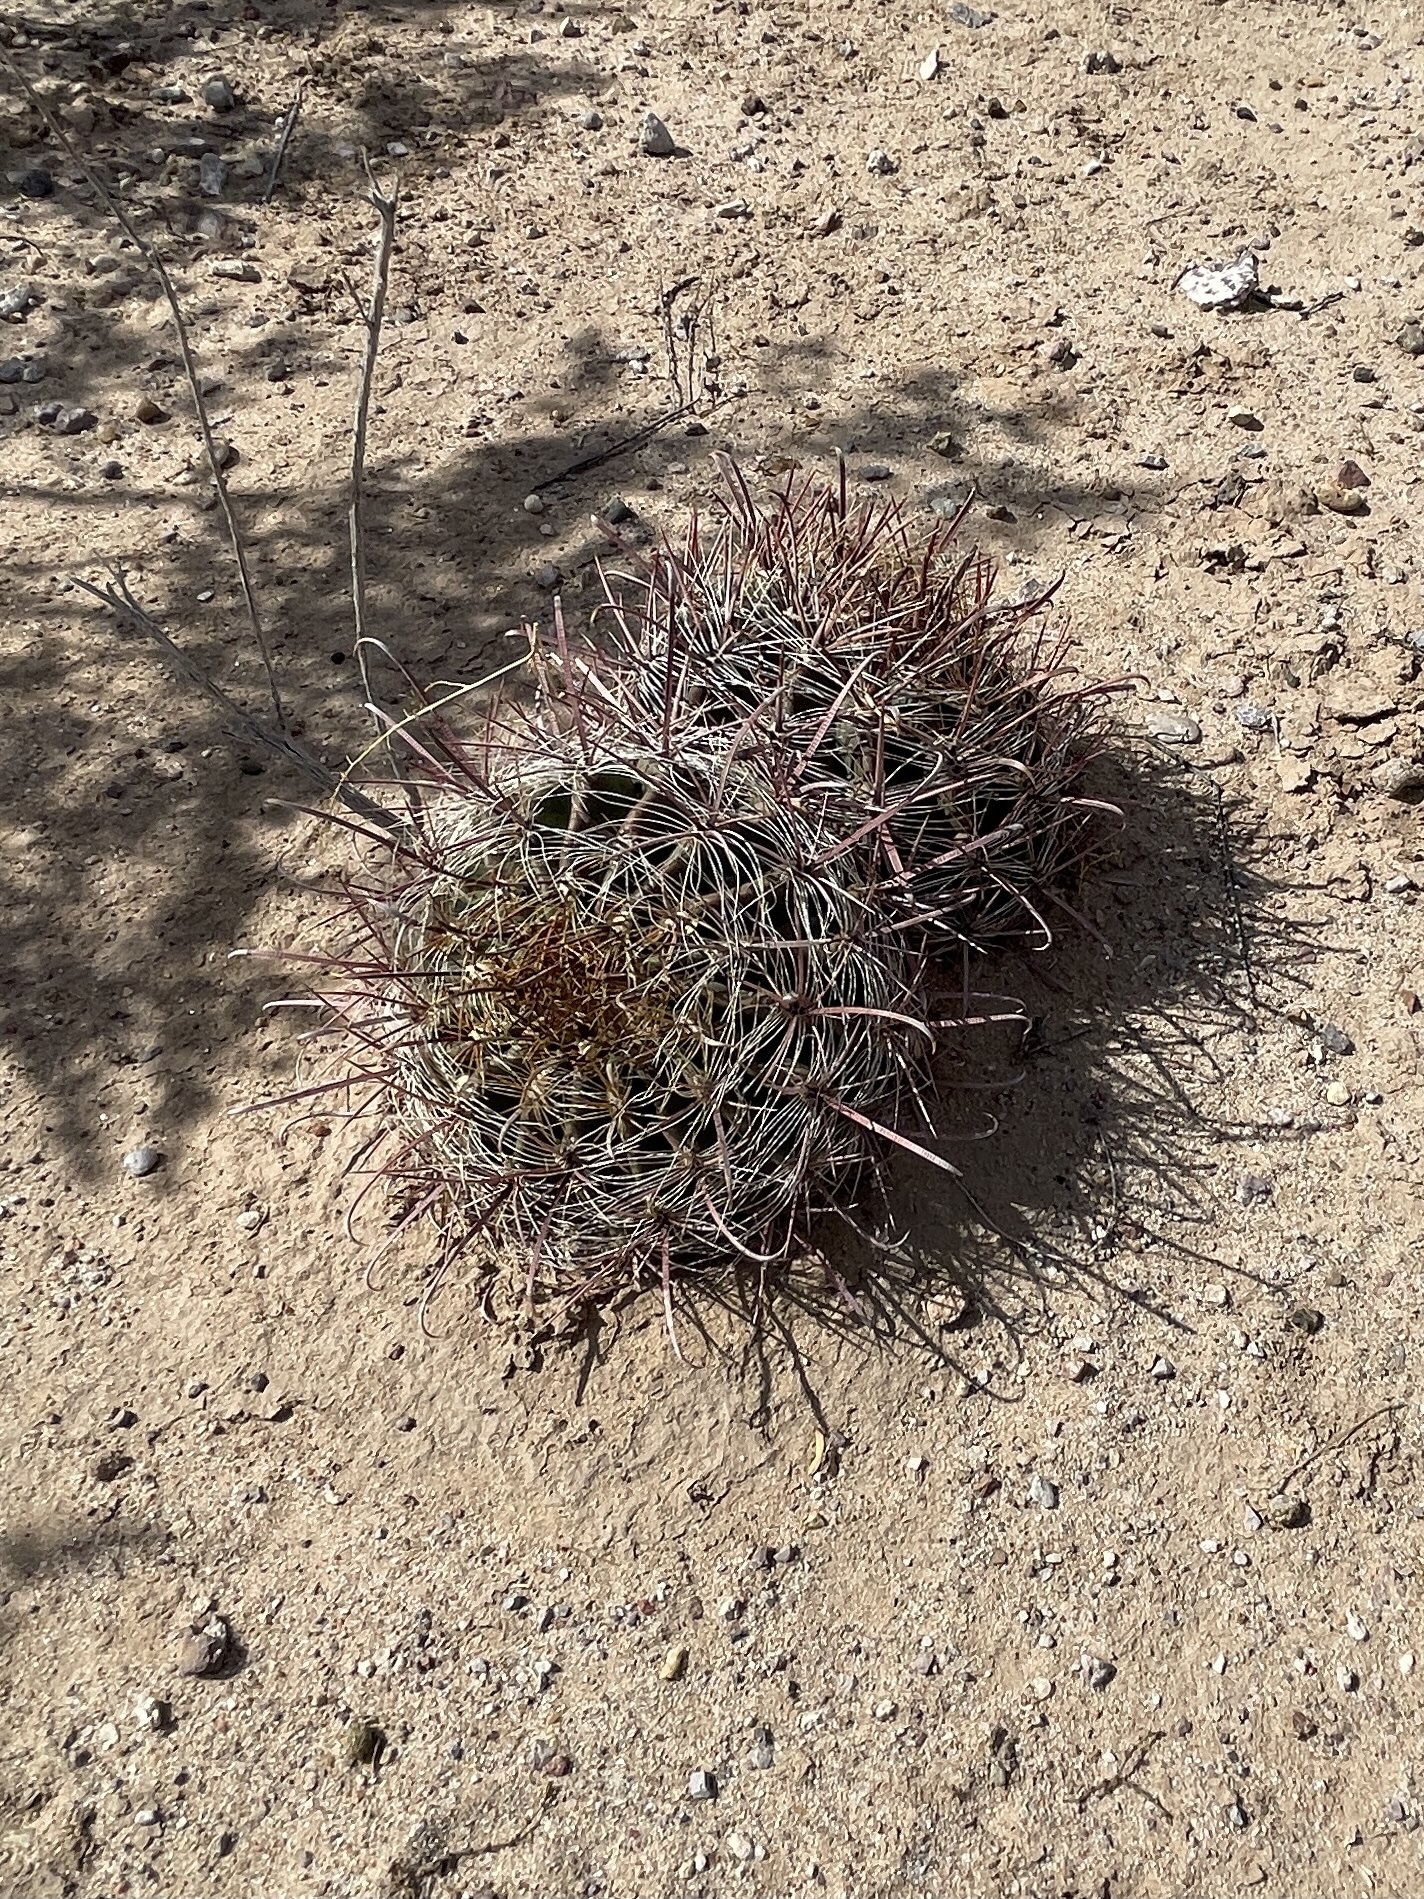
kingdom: Plantae
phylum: Tracheophyta
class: Magnoliopsida
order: Caryophyllales
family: Cactaceae
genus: Ferocactus
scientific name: Ferocactus wislizeni
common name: Candy barrel cactus
